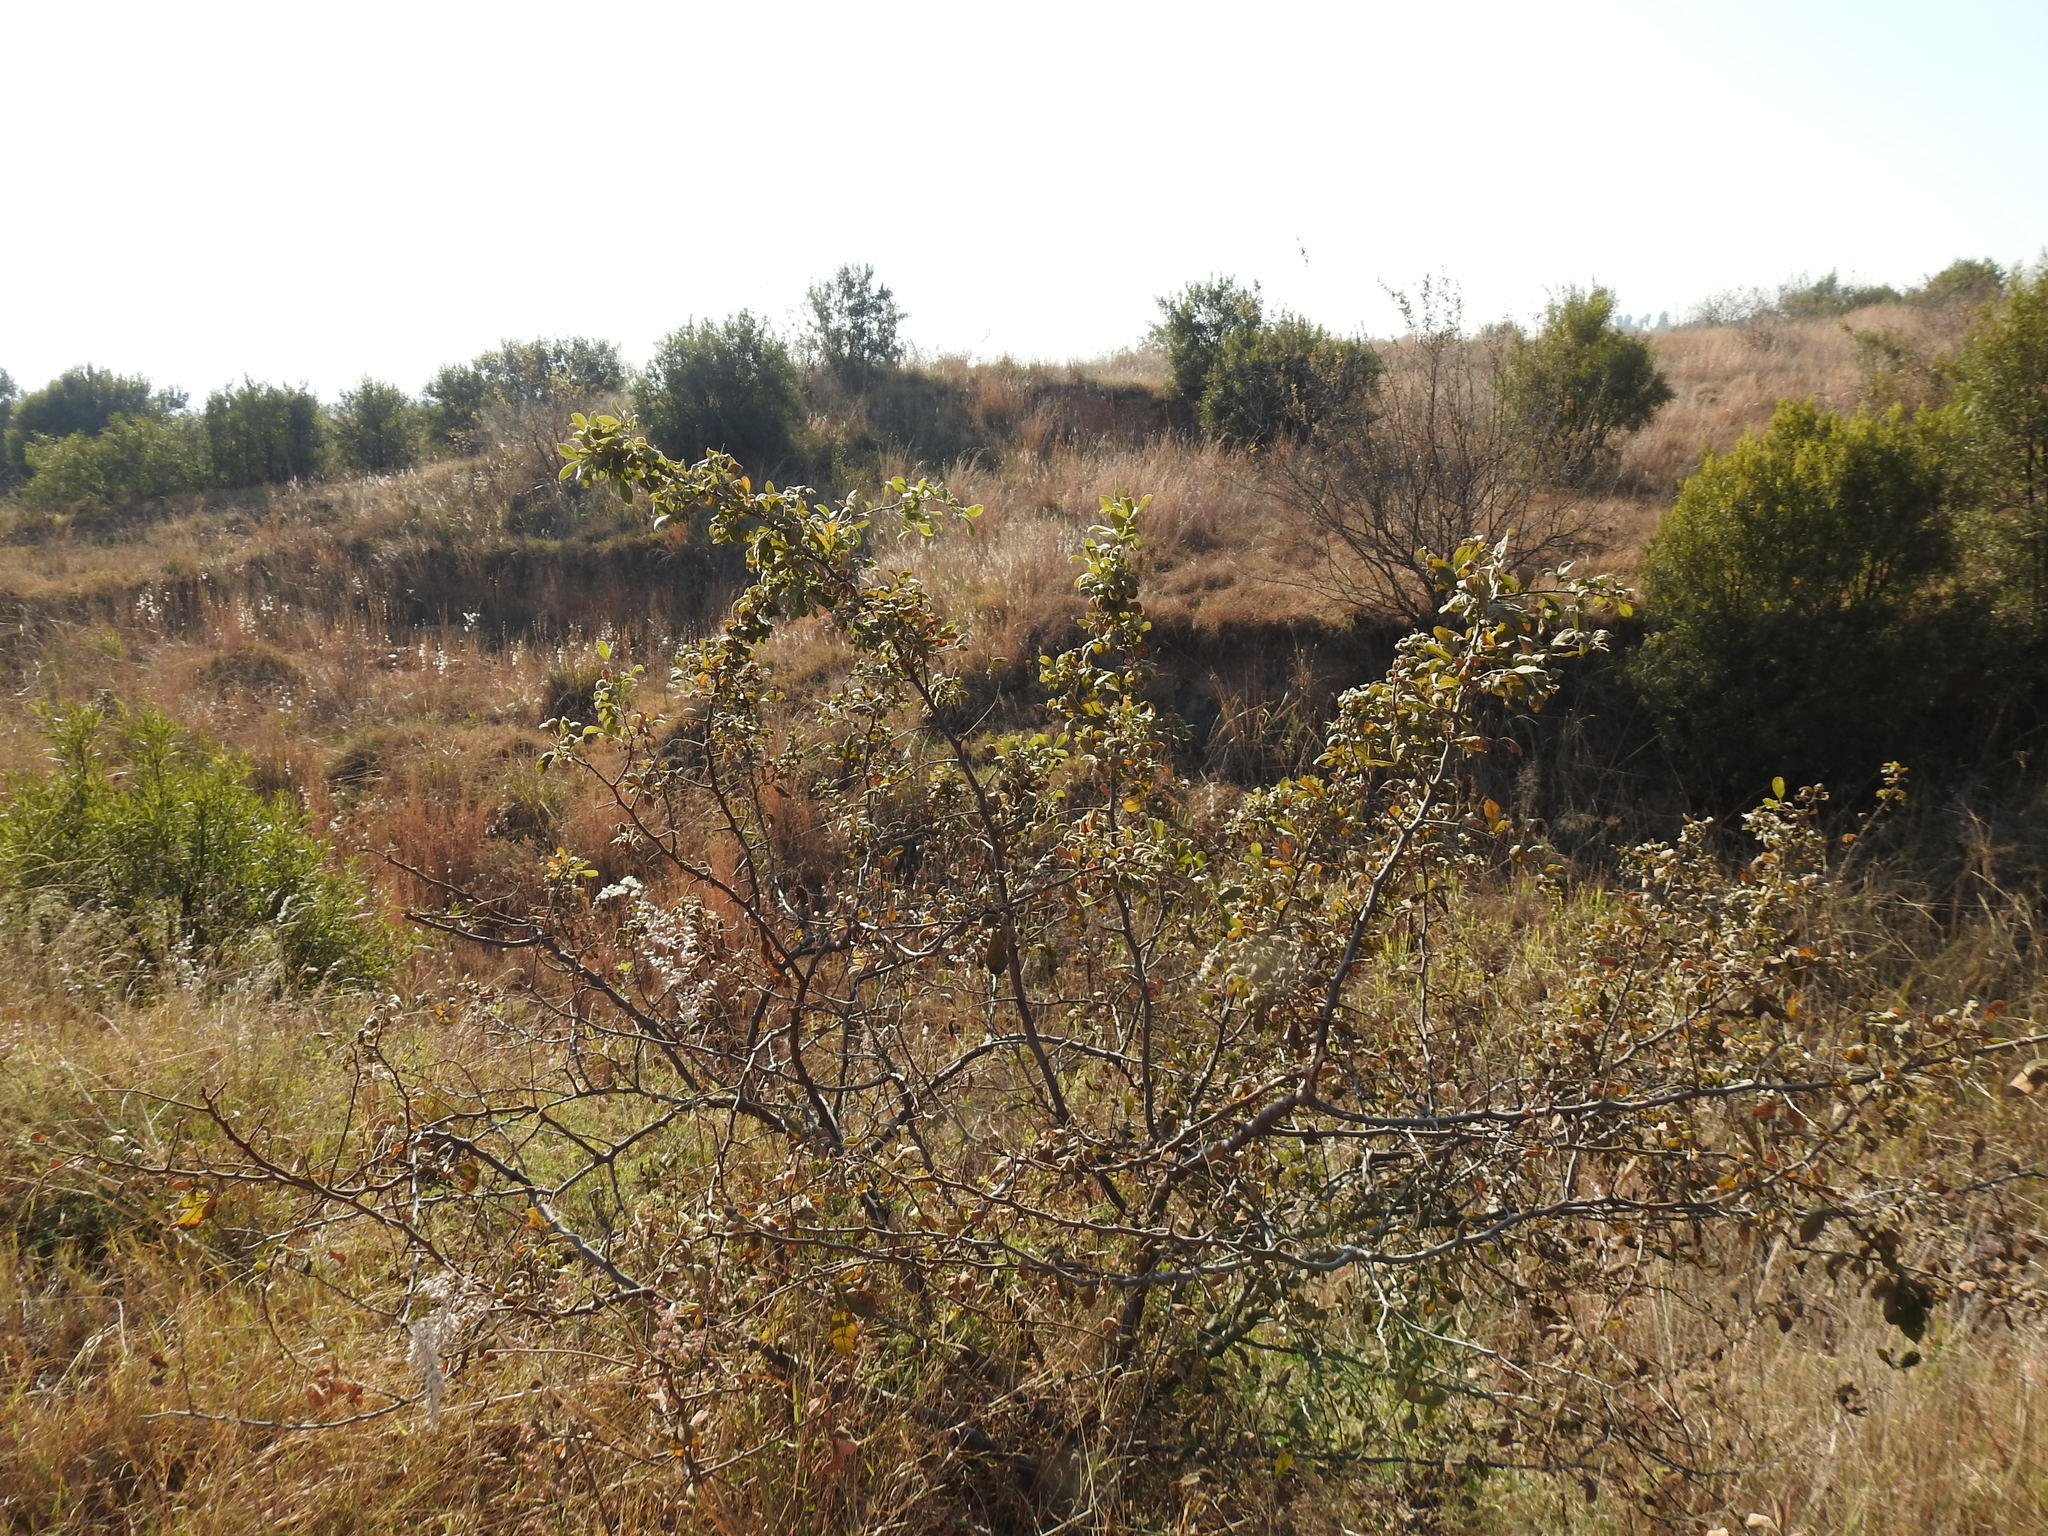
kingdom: Plantae
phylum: Tracheophyta
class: Magnoliopsida
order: Sapindales
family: Anacardiaceae
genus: Searsia
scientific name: Searsia pyroides
